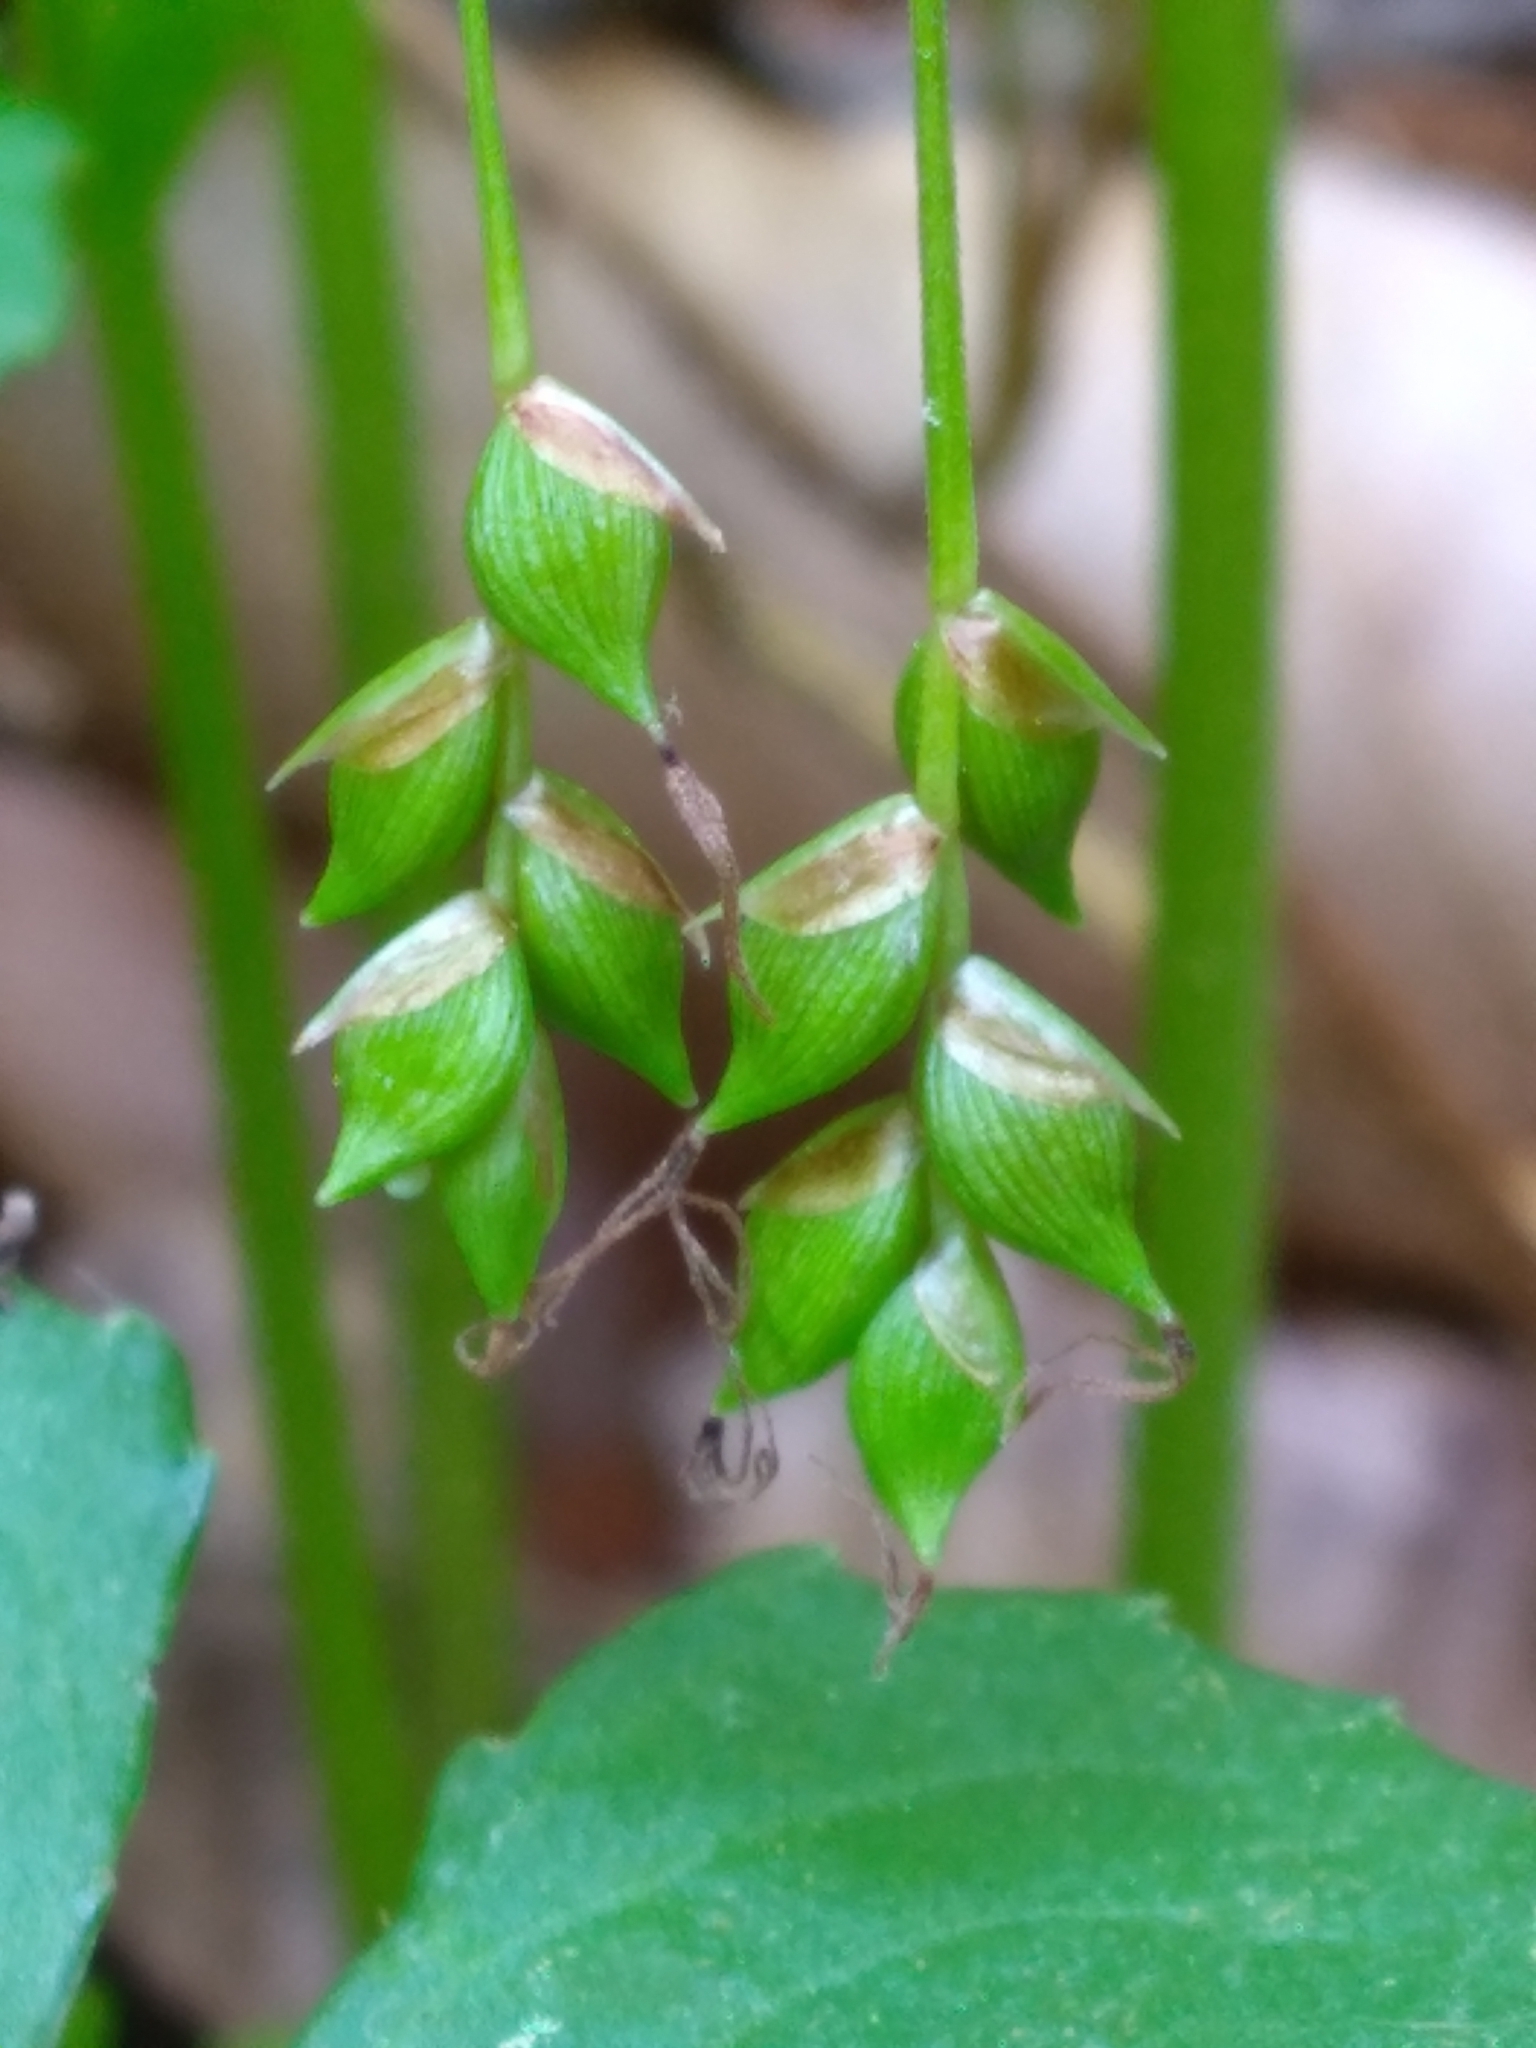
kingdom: Plantae
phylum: Tracheophyta
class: Liliopsida
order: Poales
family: Cyperaceae
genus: Carex
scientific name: Carex austrocaroliniana
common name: Tarheel sedge
